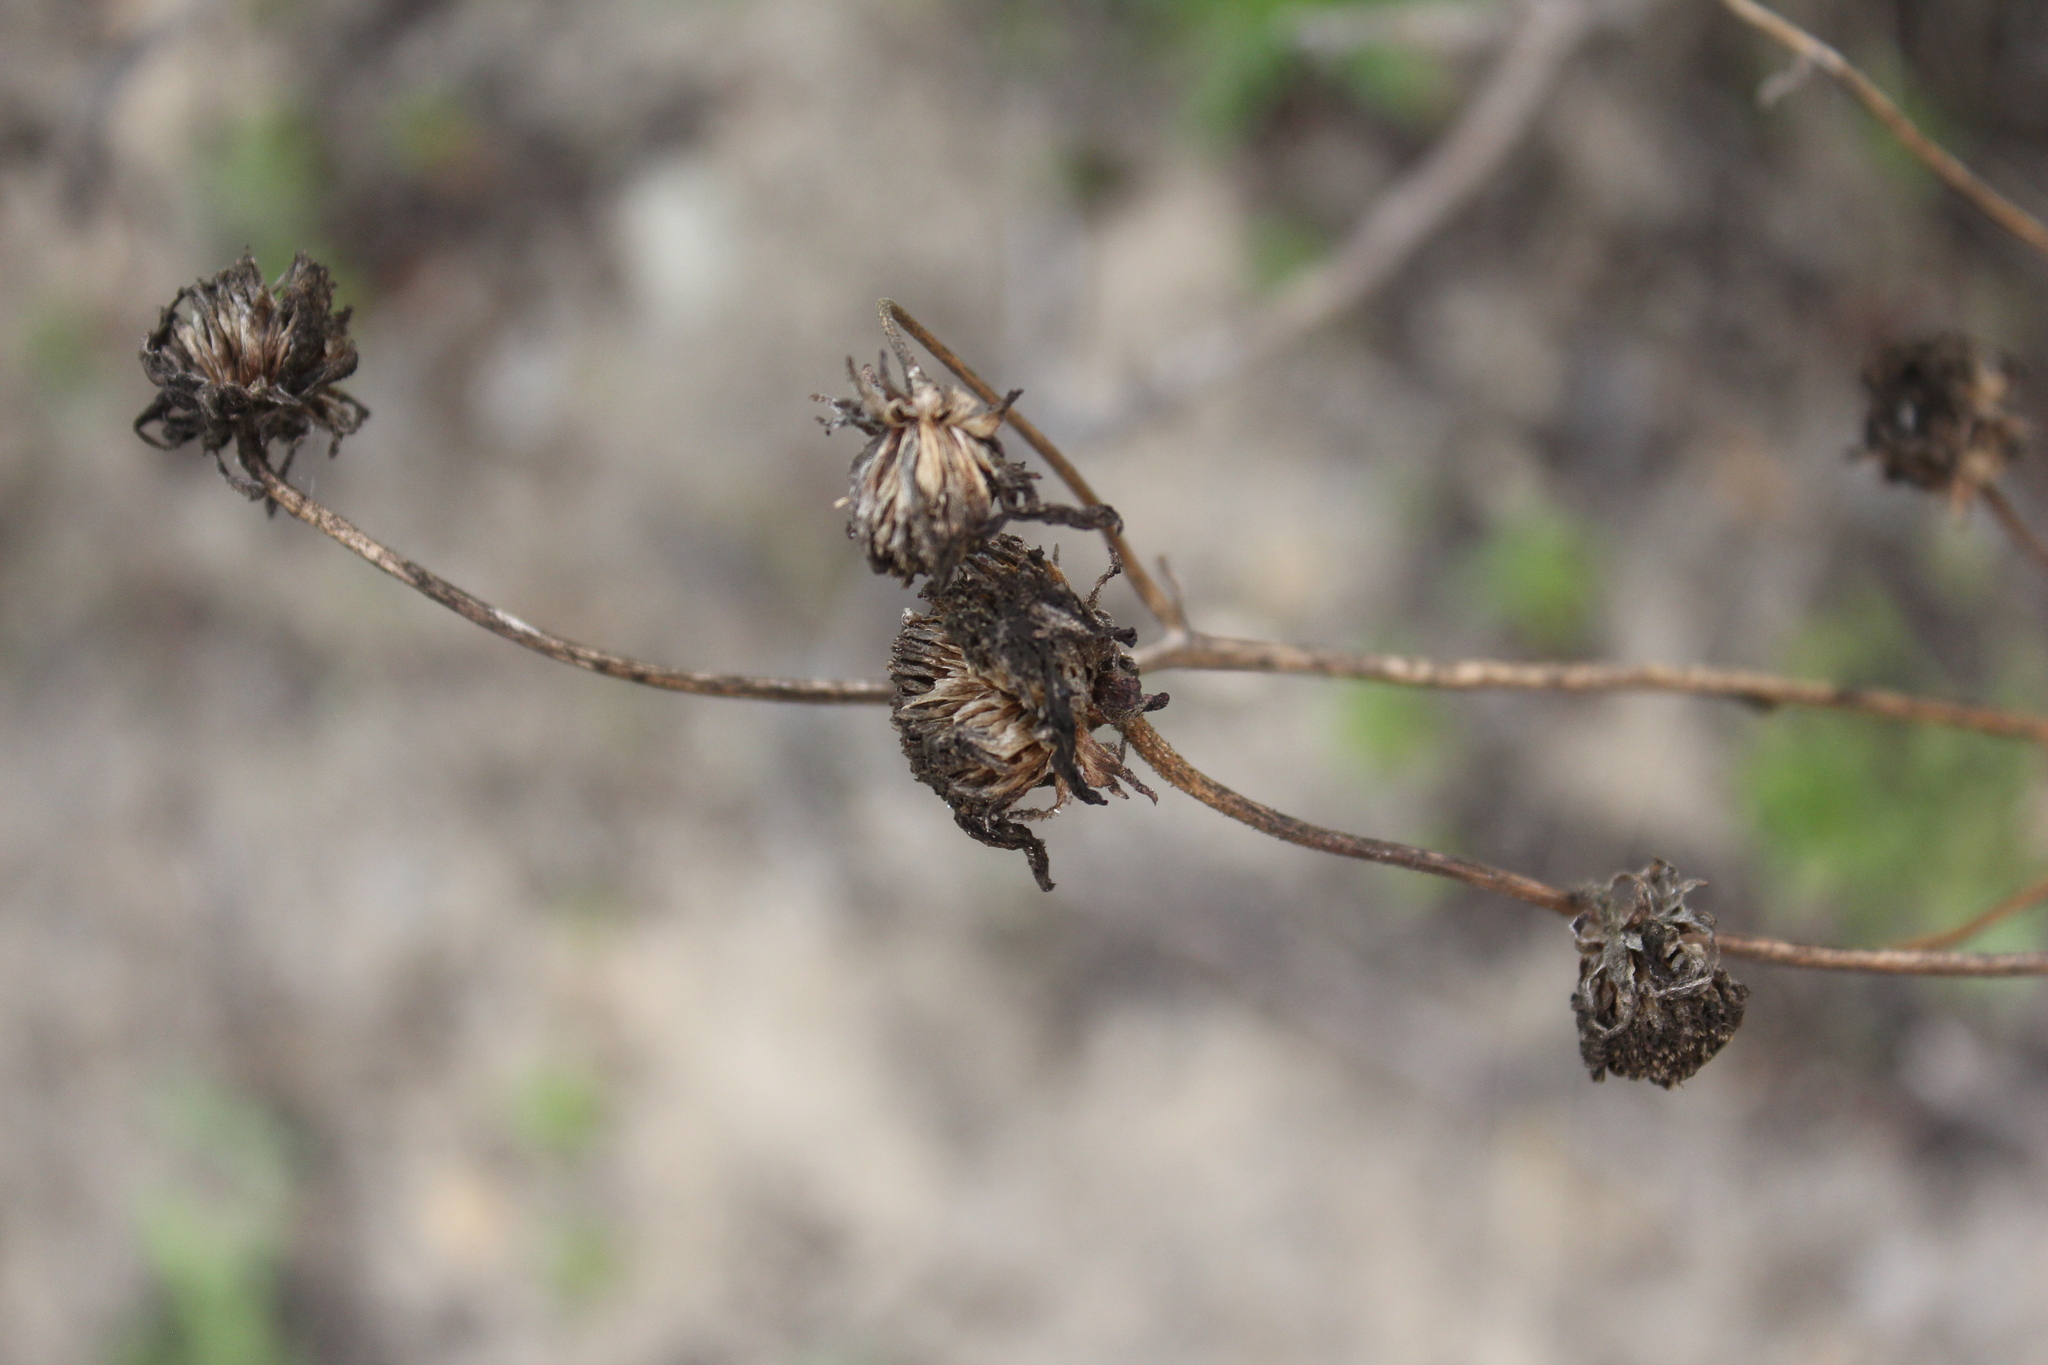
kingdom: Plantae
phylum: Tracheophyta
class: Magnoliopsida
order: Asterales
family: Asteraceae
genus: Encelia
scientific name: Encelia californica
